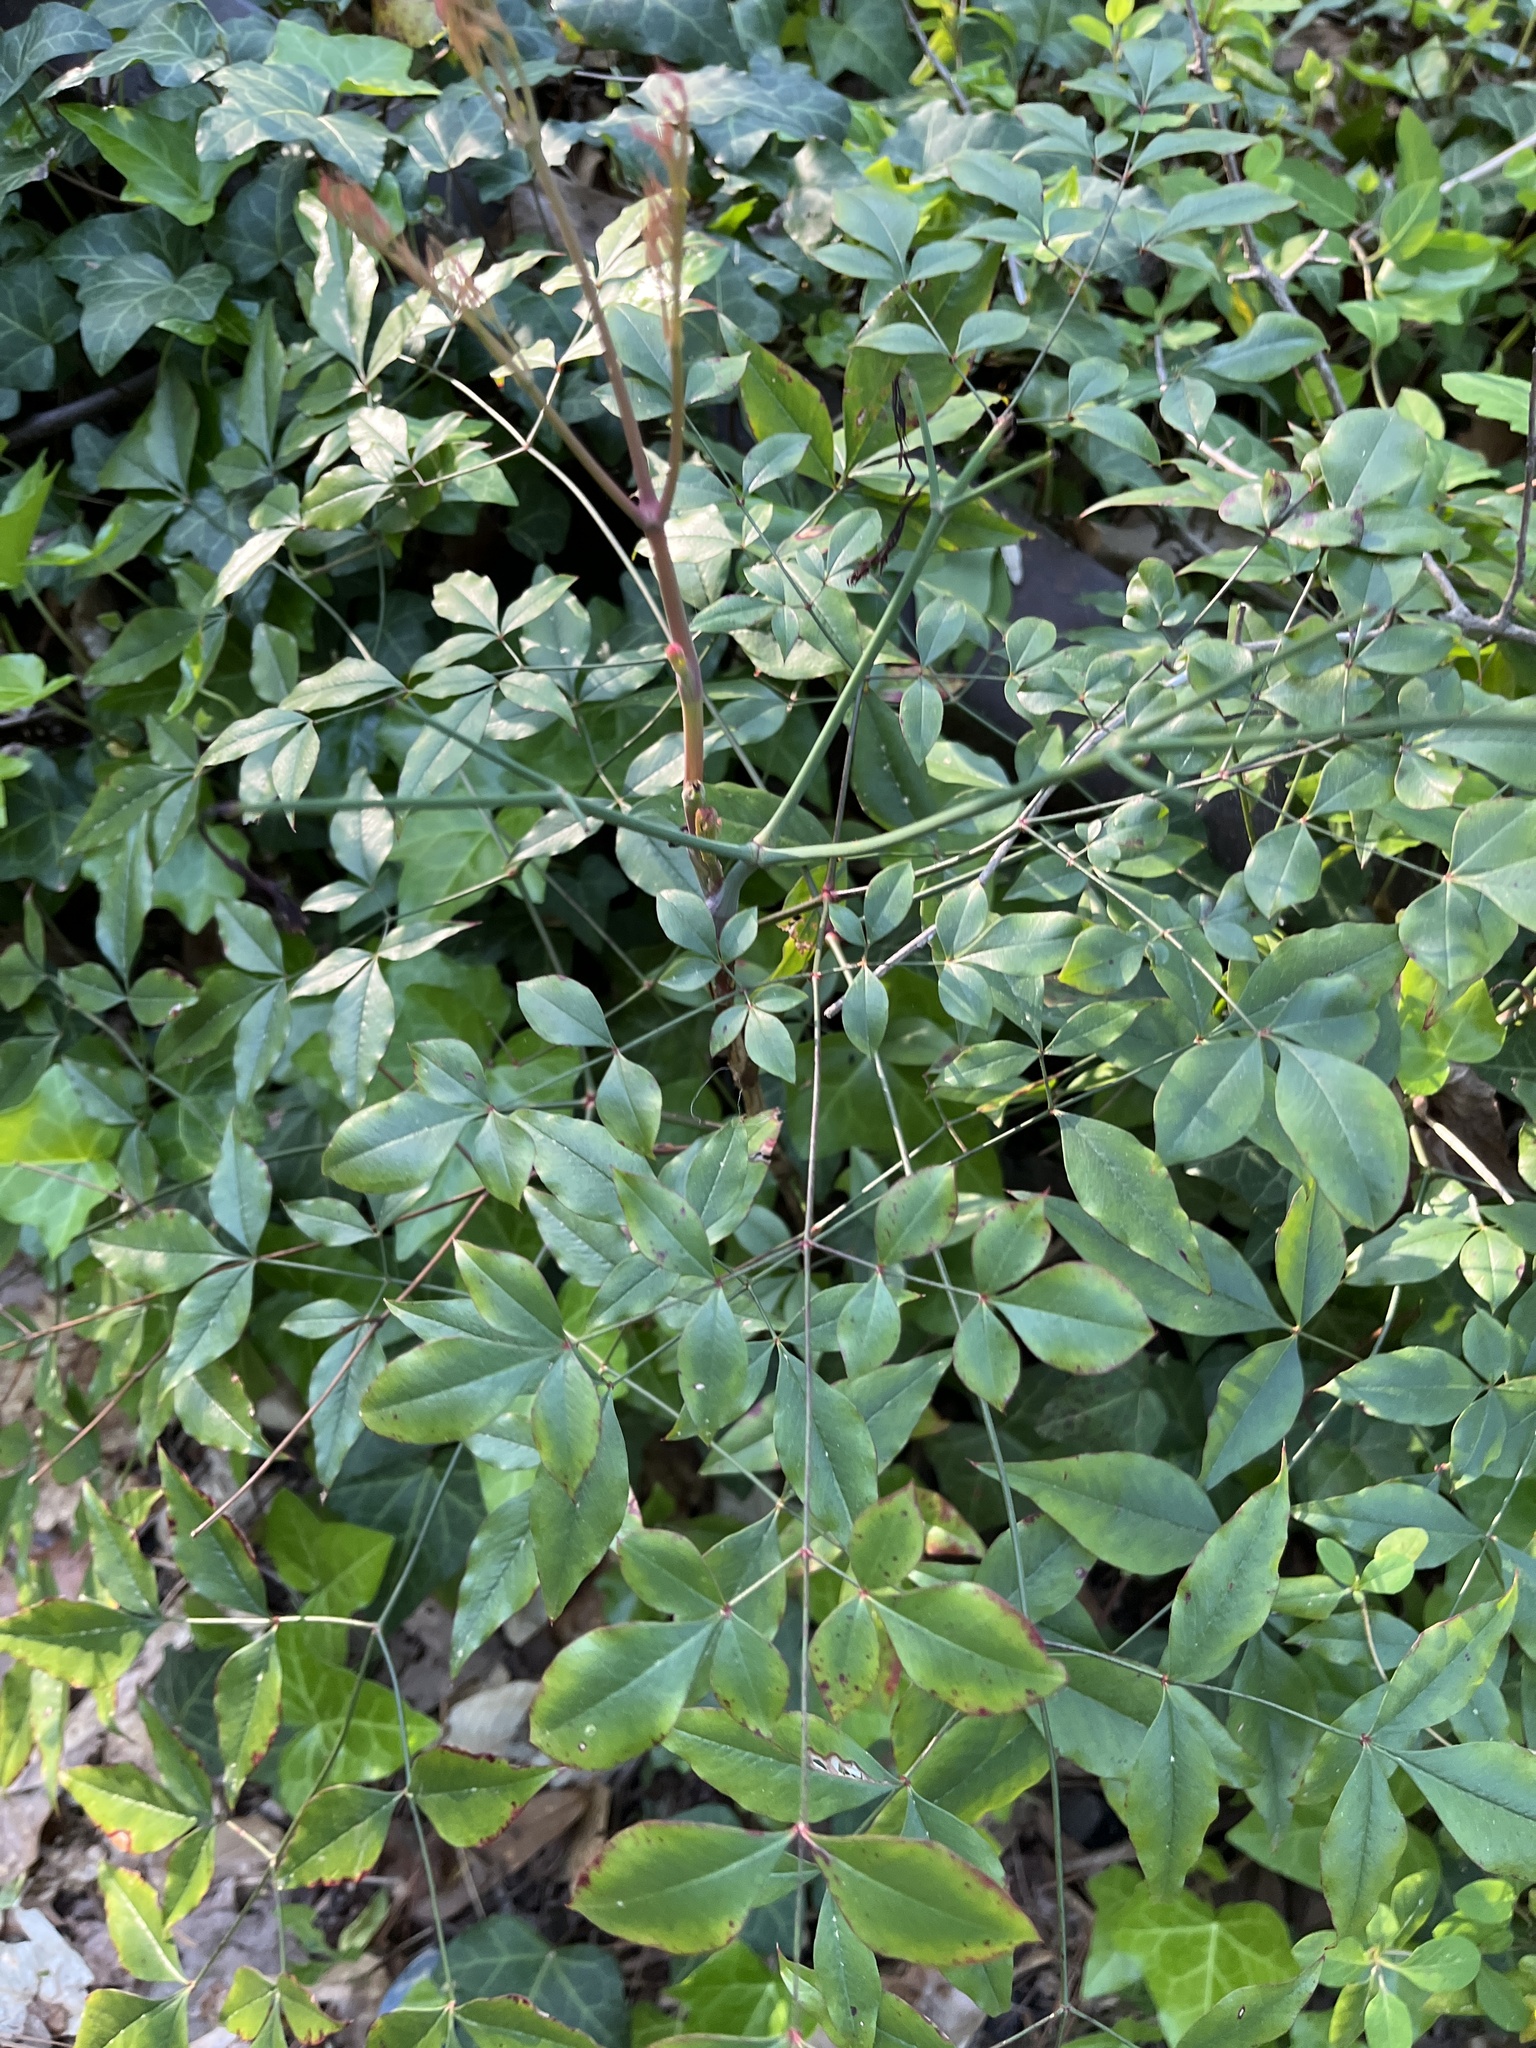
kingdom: Plantae
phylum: Tracheophyta
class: Magnoliopsida
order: Ranunculales
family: Berberidaceae
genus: Nandina
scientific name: Nandina domestica
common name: Sacred bamboo
